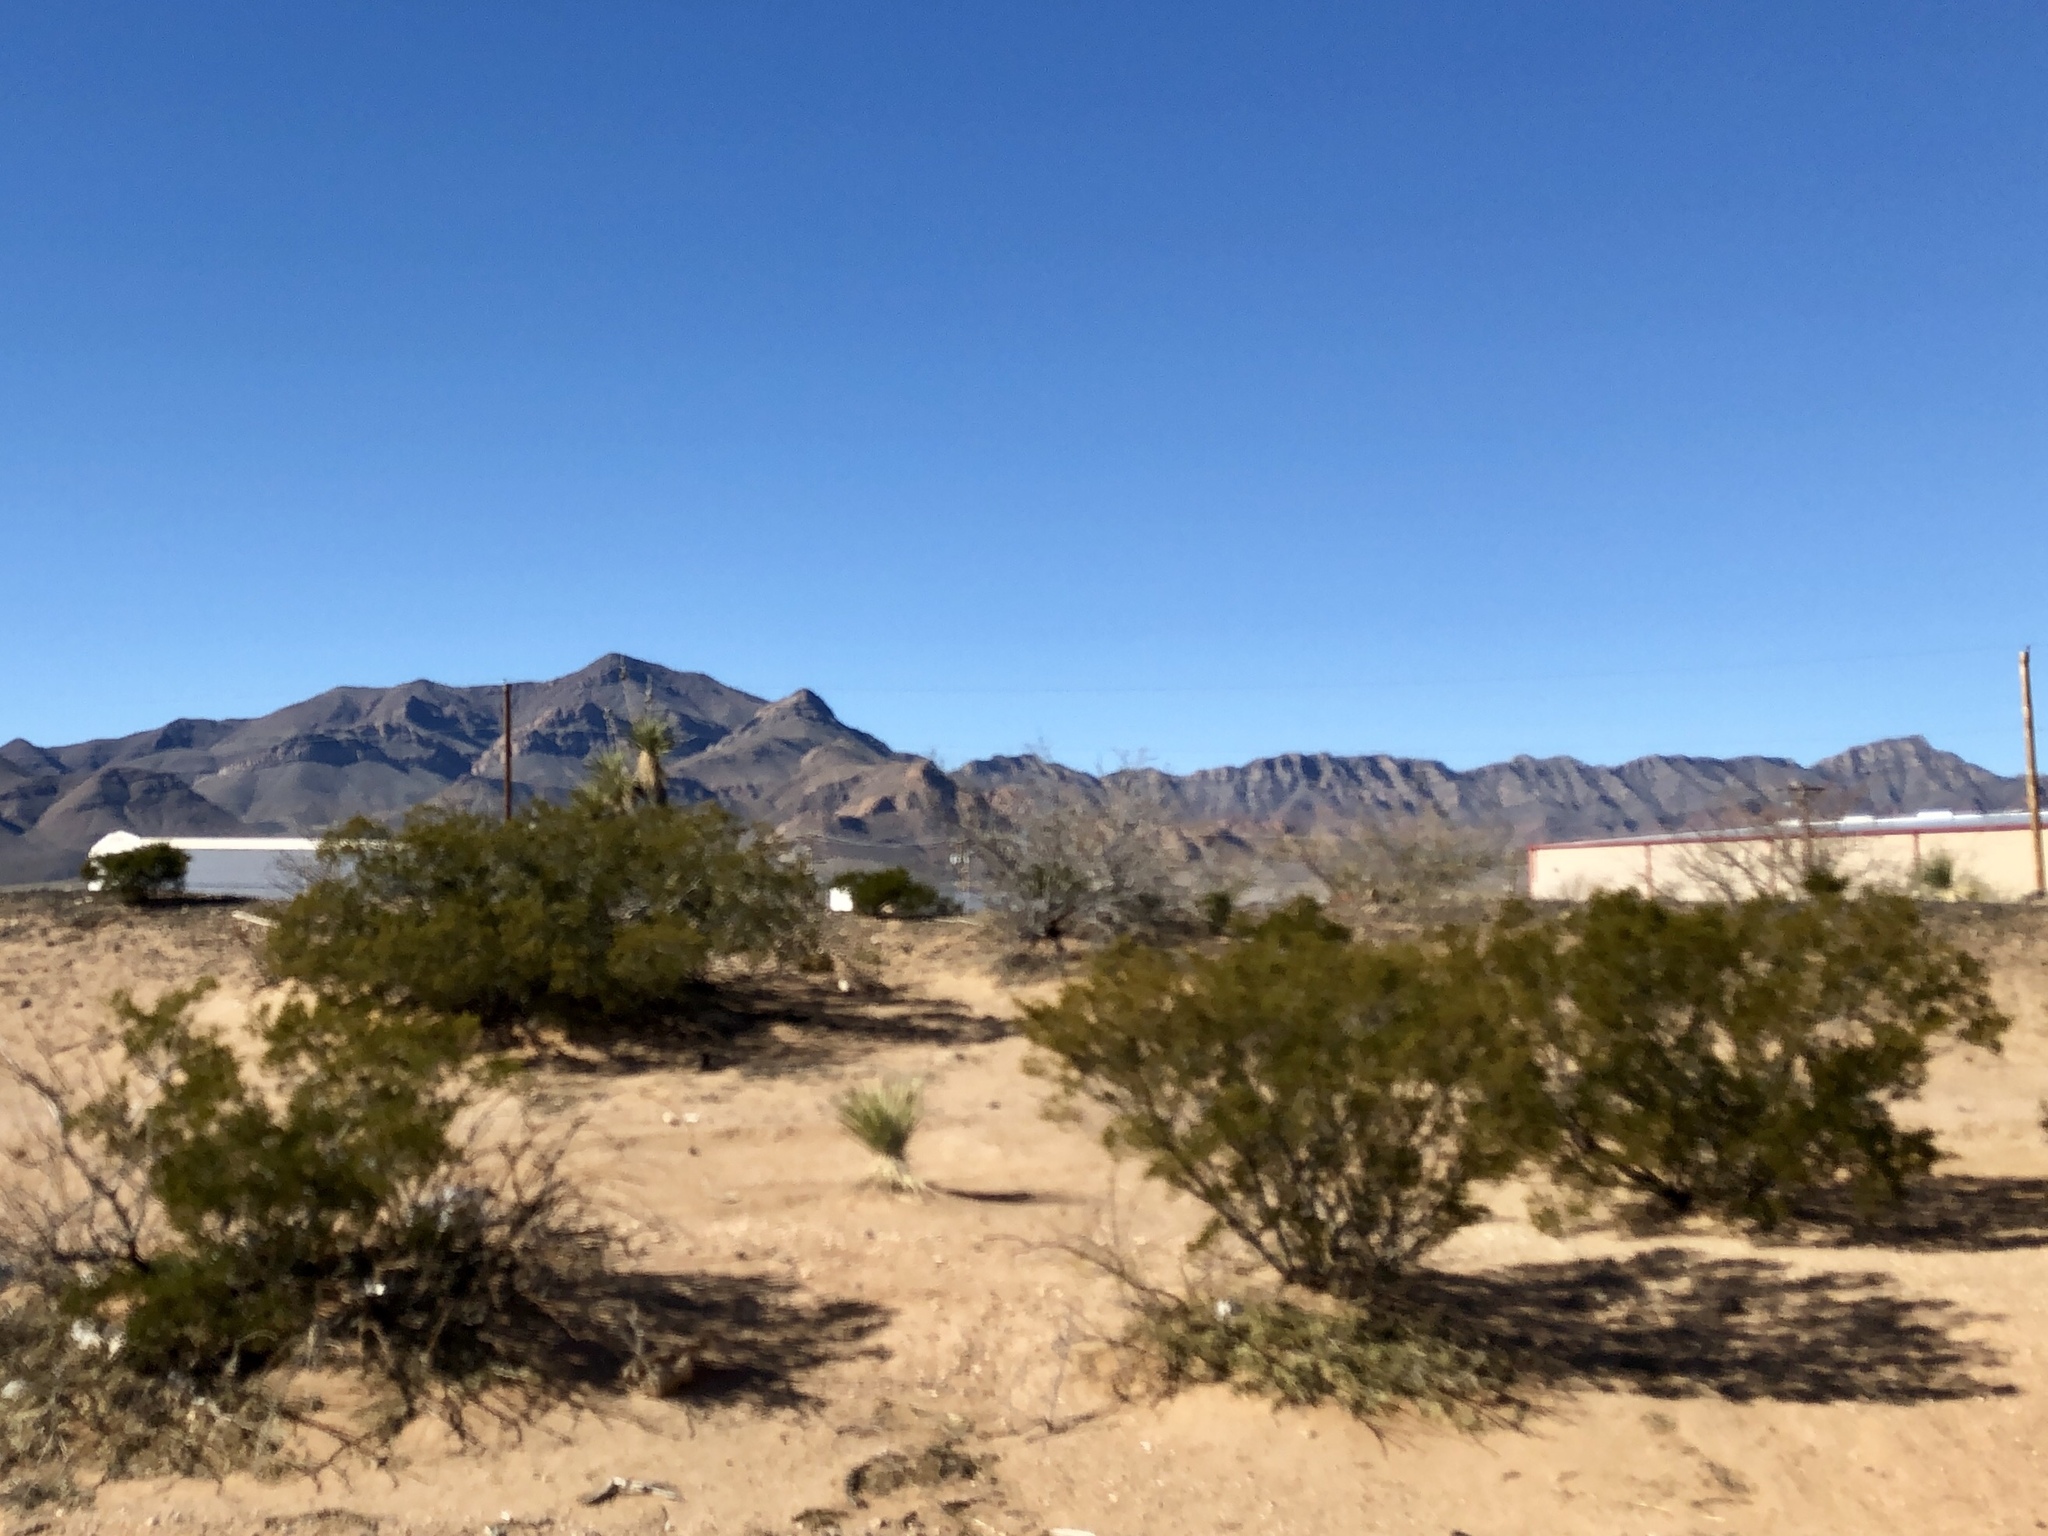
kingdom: Plantae
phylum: Tracheophyta
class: Magnoliopsida
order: Zygophyllales
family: Zygophyllaceae
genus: Larrea
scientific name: Larrea tridentata
